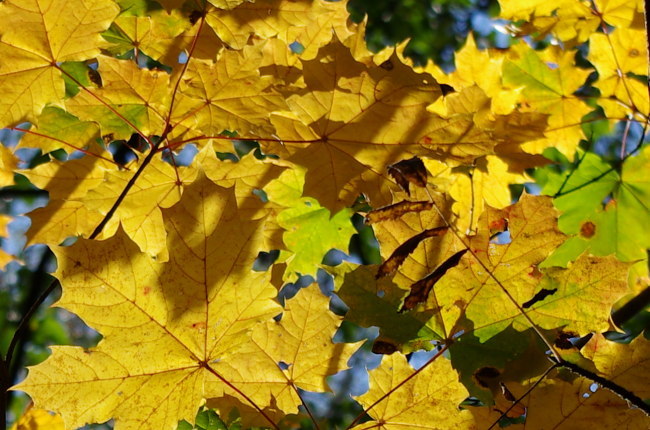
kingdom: Plantae
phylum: Tracheophyta
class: Magnoliopsida
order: Sapindales
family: Sapindaceae
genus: Acer
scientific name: Acer platanoides
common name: Norway maple
